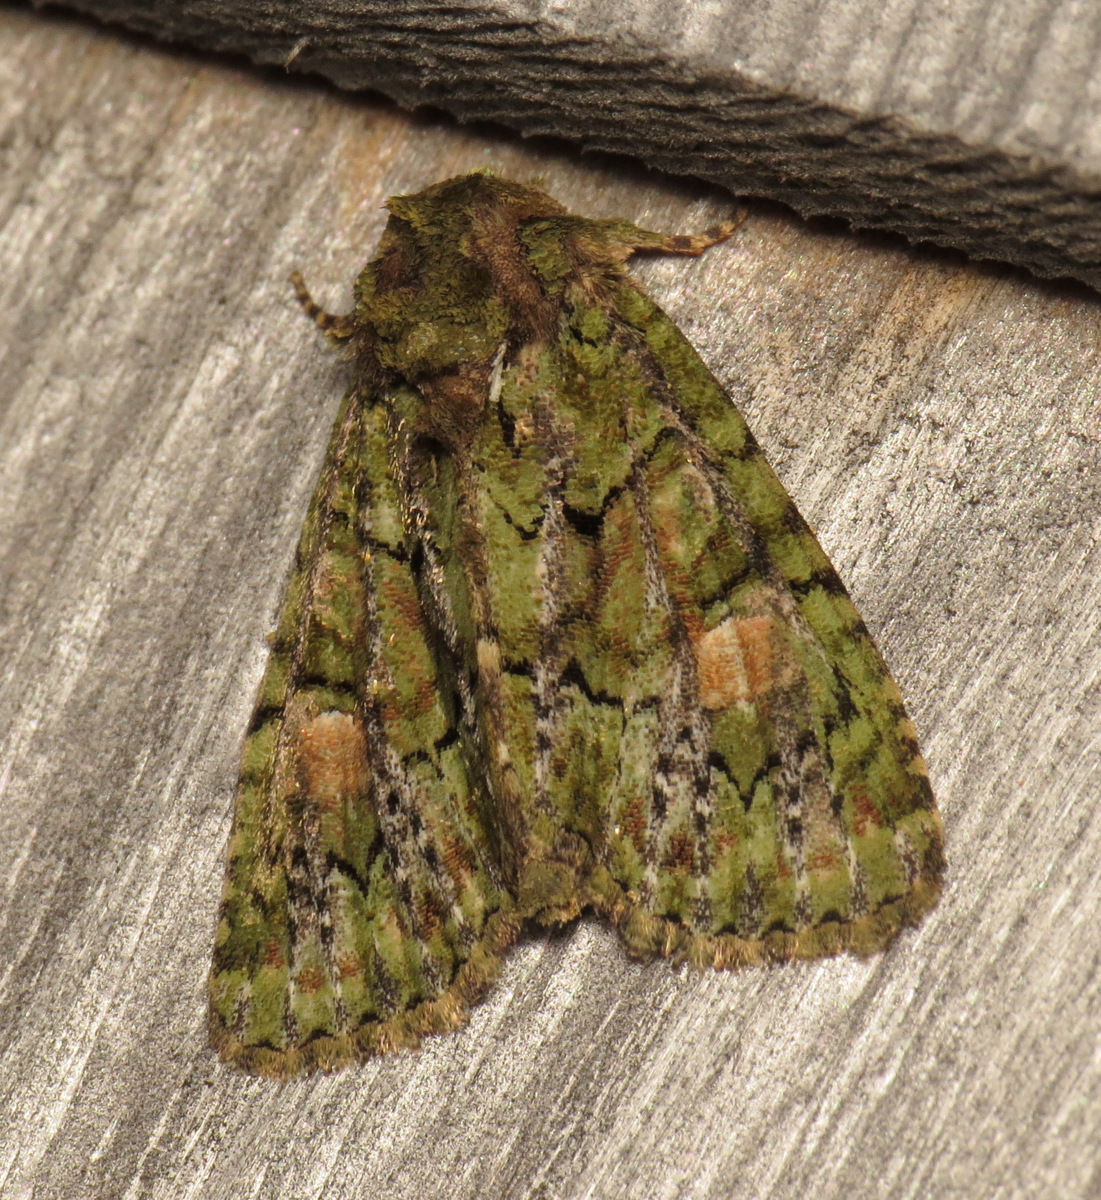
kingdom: Animalia
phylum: Arthropoda
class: Insecta
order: Lepidoptera
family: Noctuidae
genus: Phosphila
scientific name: Phosphila miselioides
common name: Spotted phosphila moth
